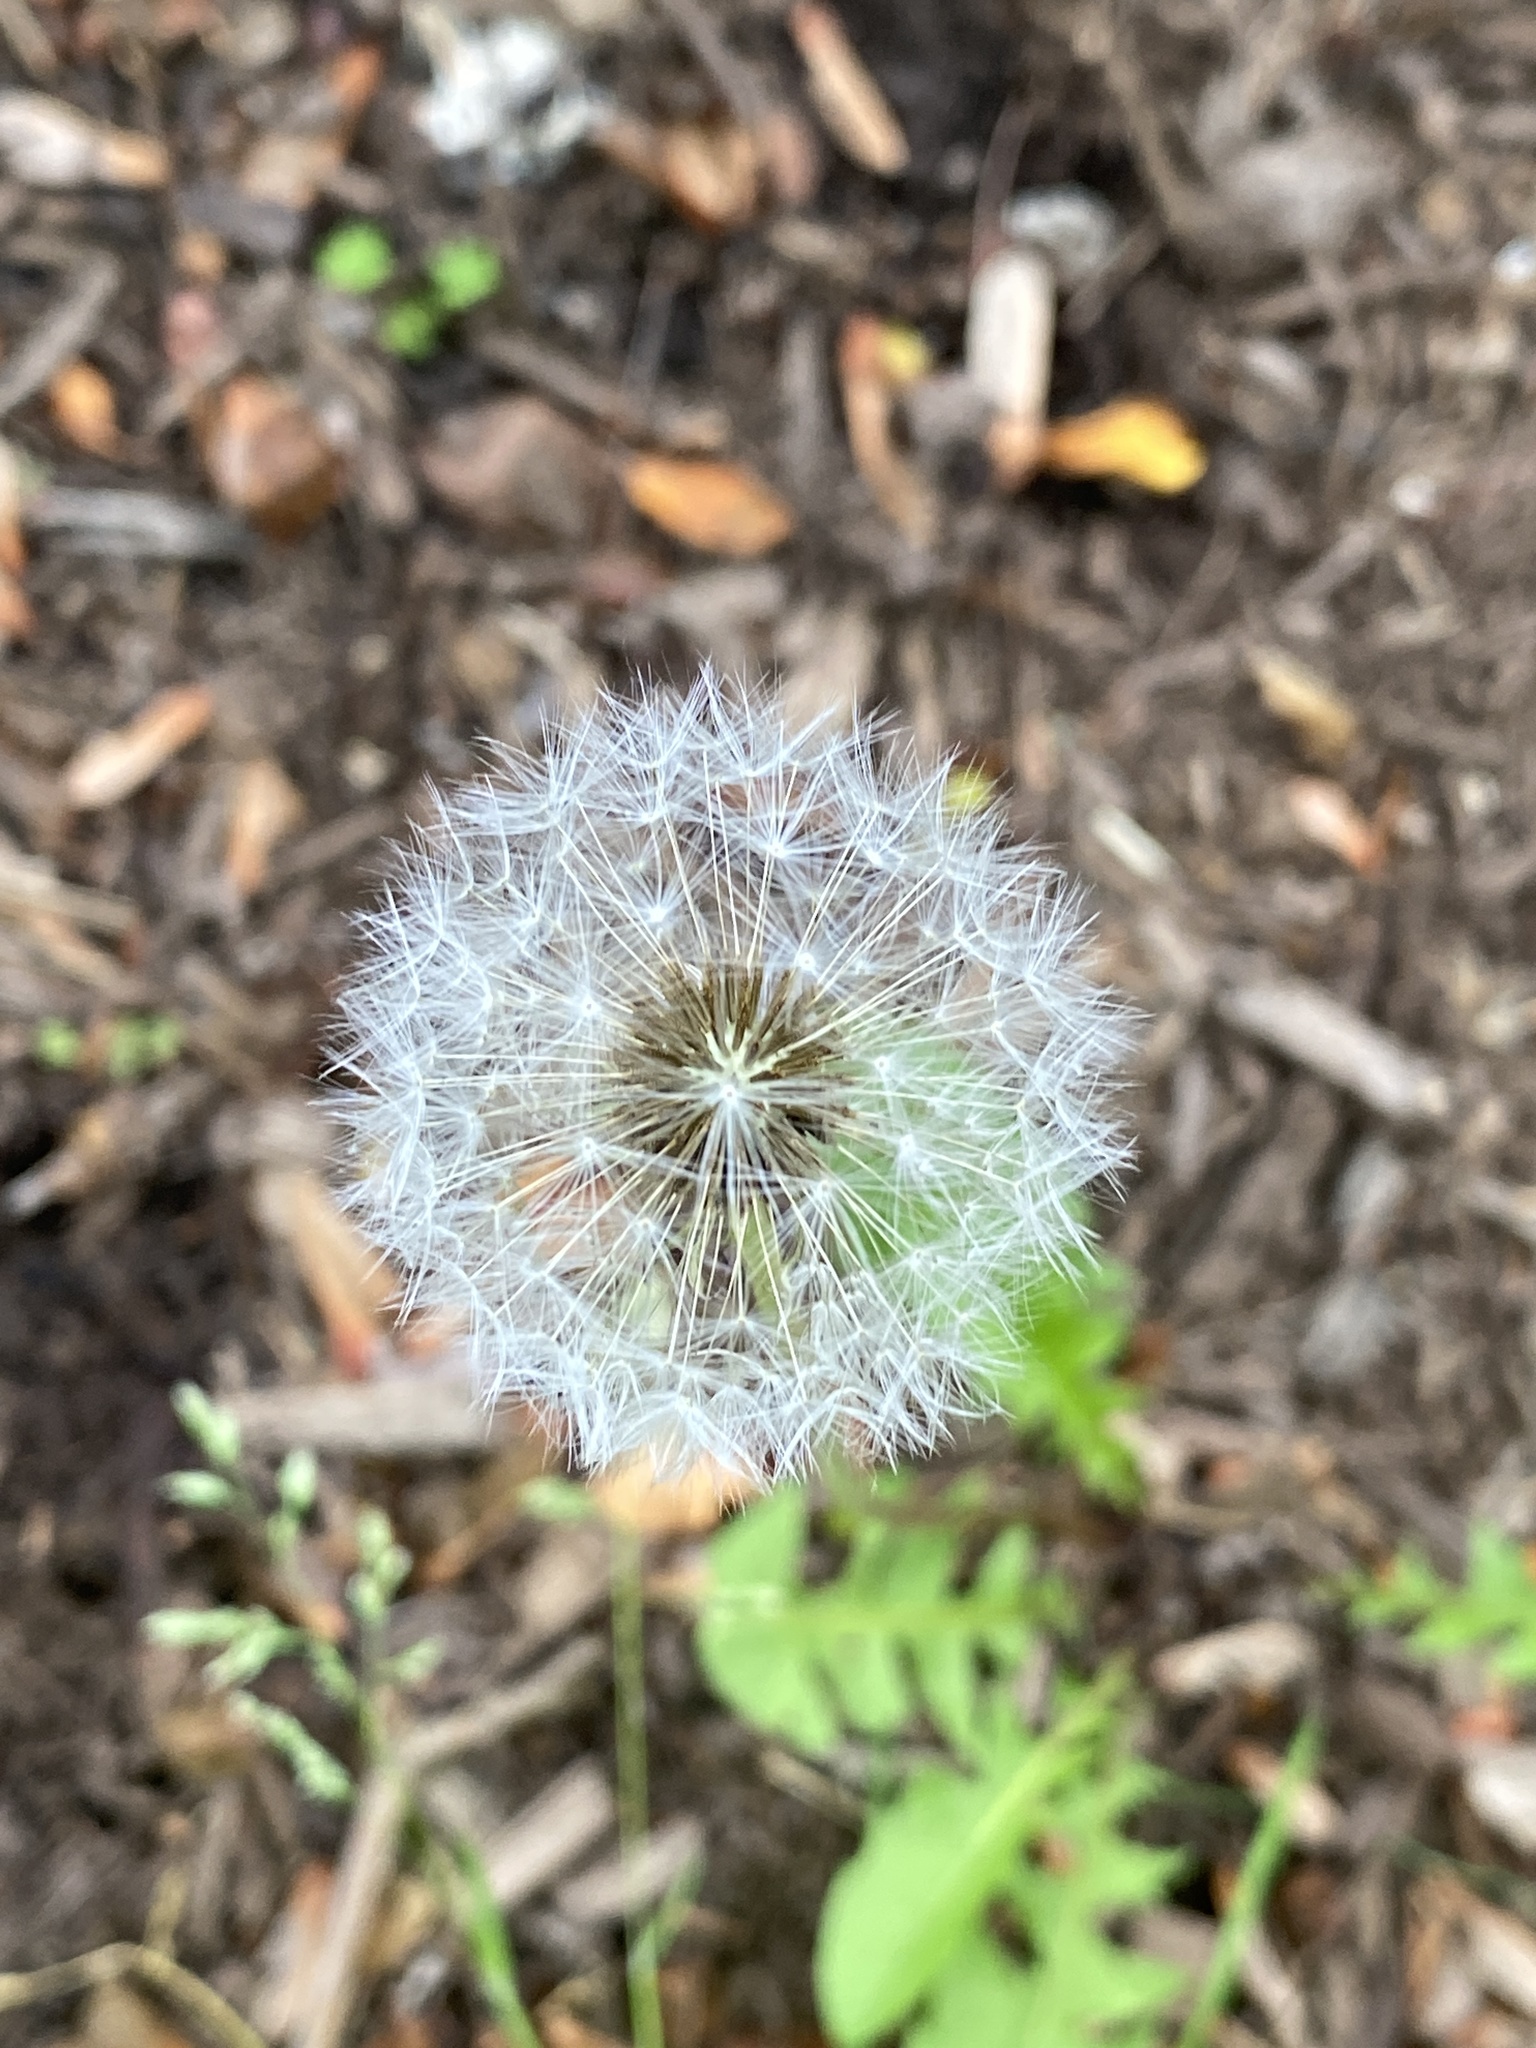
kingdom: Plantae
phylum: Tracheophyta
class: Magnoliopsida
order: Asterales
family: Asteraceae
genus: Taraxacum
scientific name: Taraxacum officinale
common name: Common dandelion
